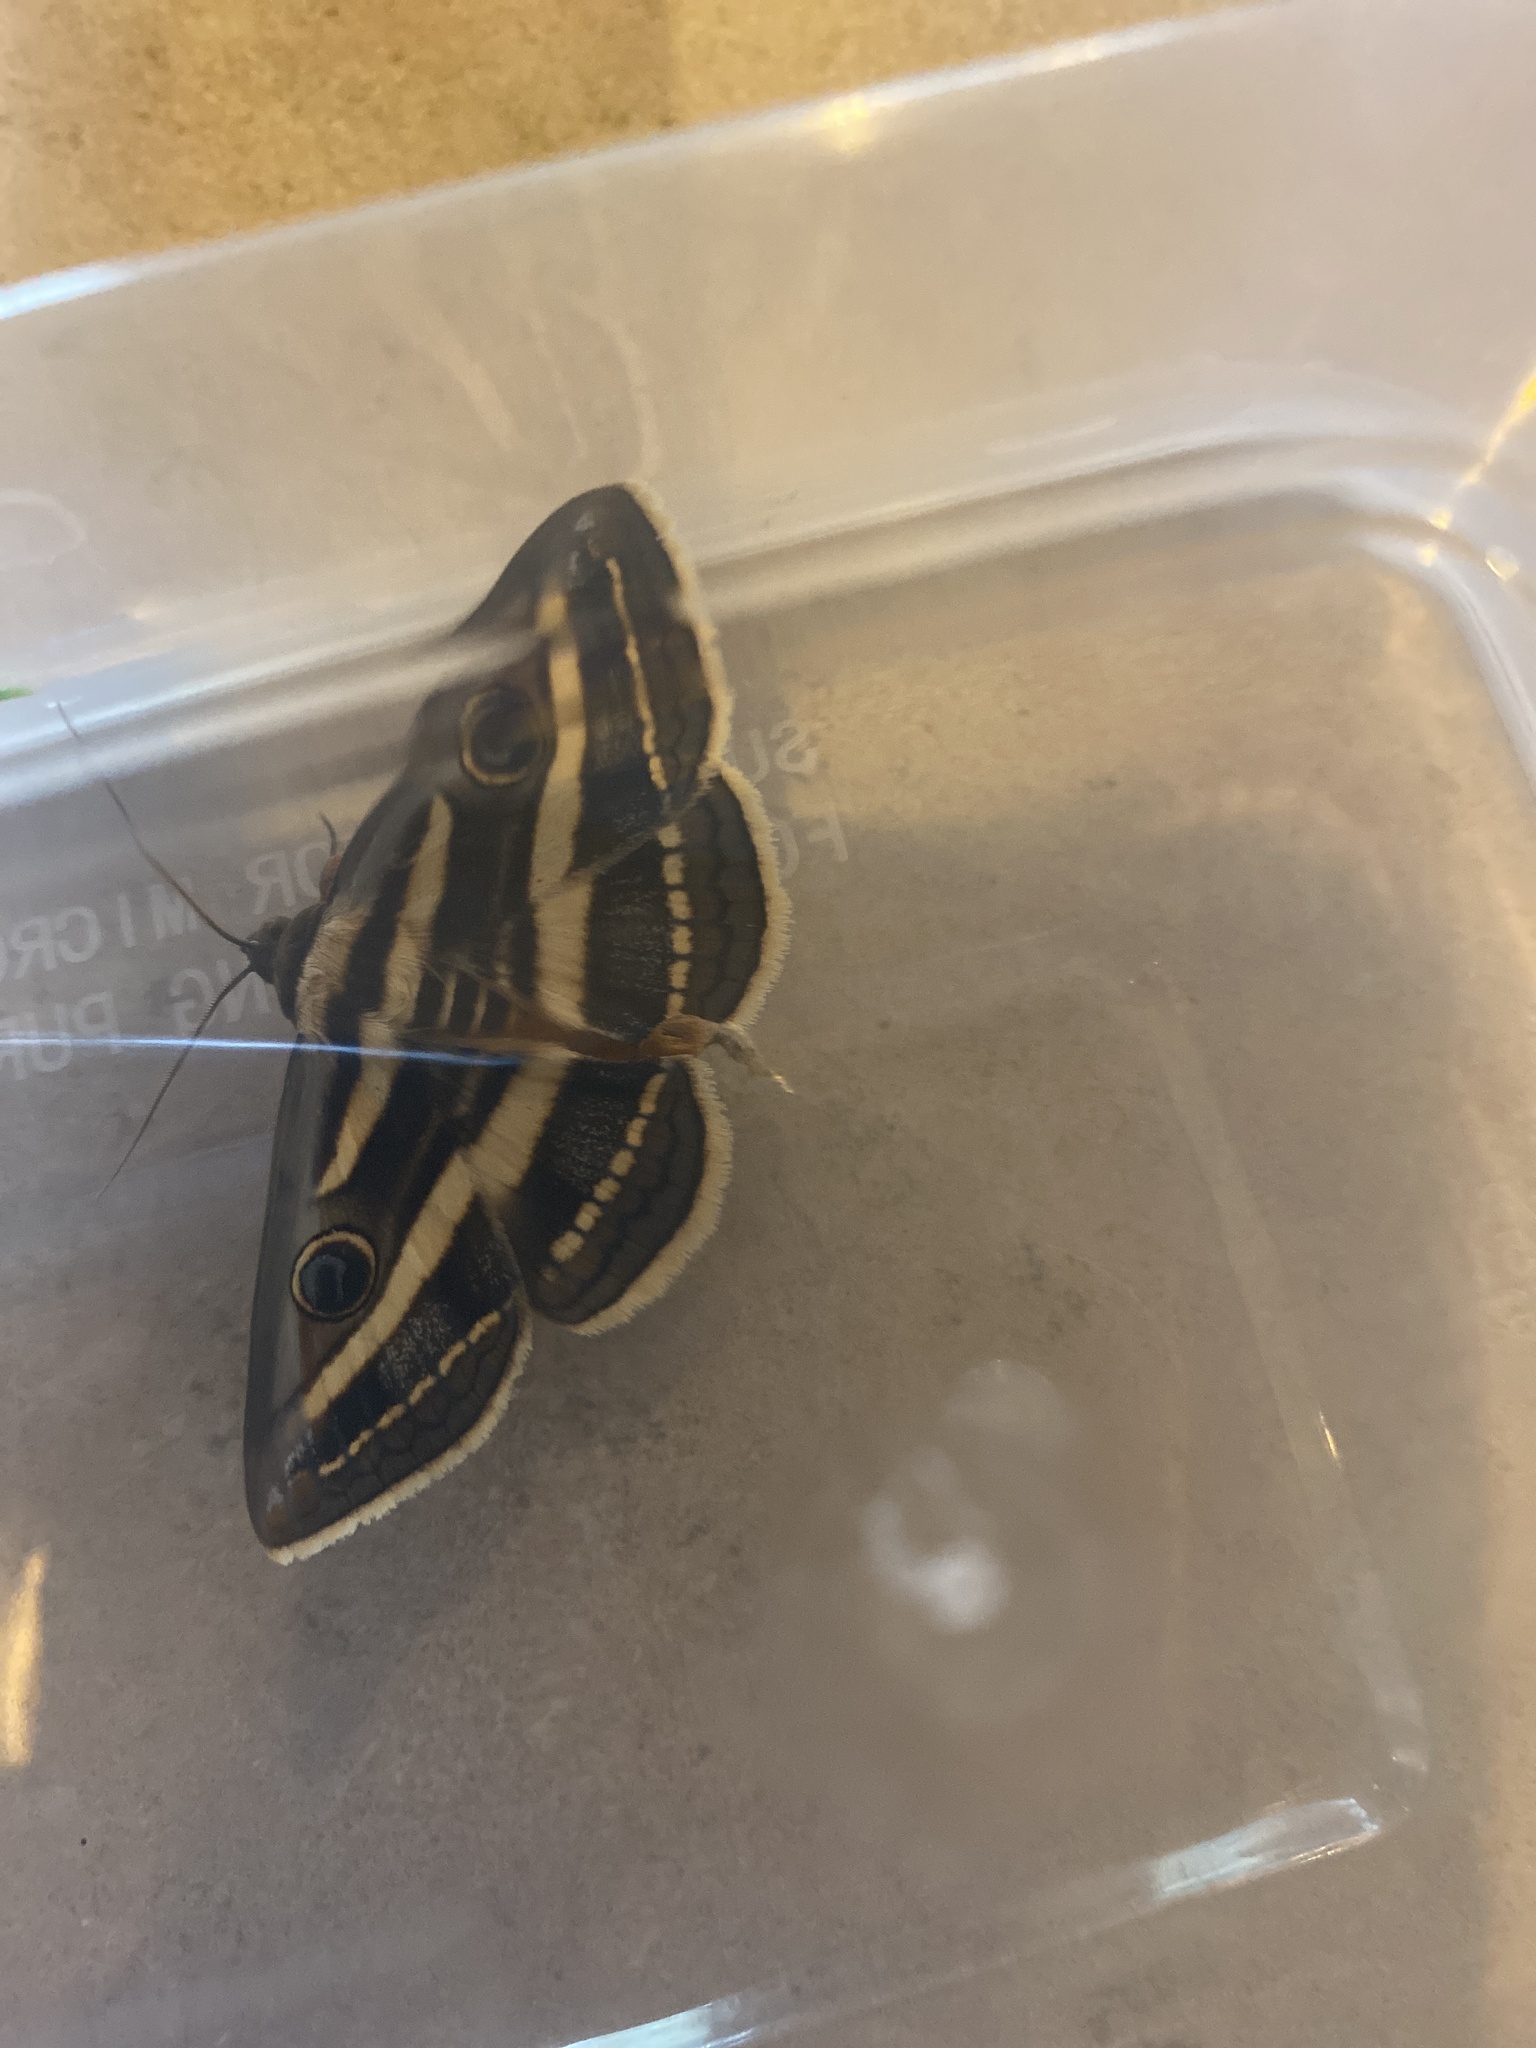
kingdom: Animalia
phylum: Arthropoda
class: Insecta
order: Lepidoptera
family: Erebidae
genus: Donuca
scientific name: Donuca orbigera
